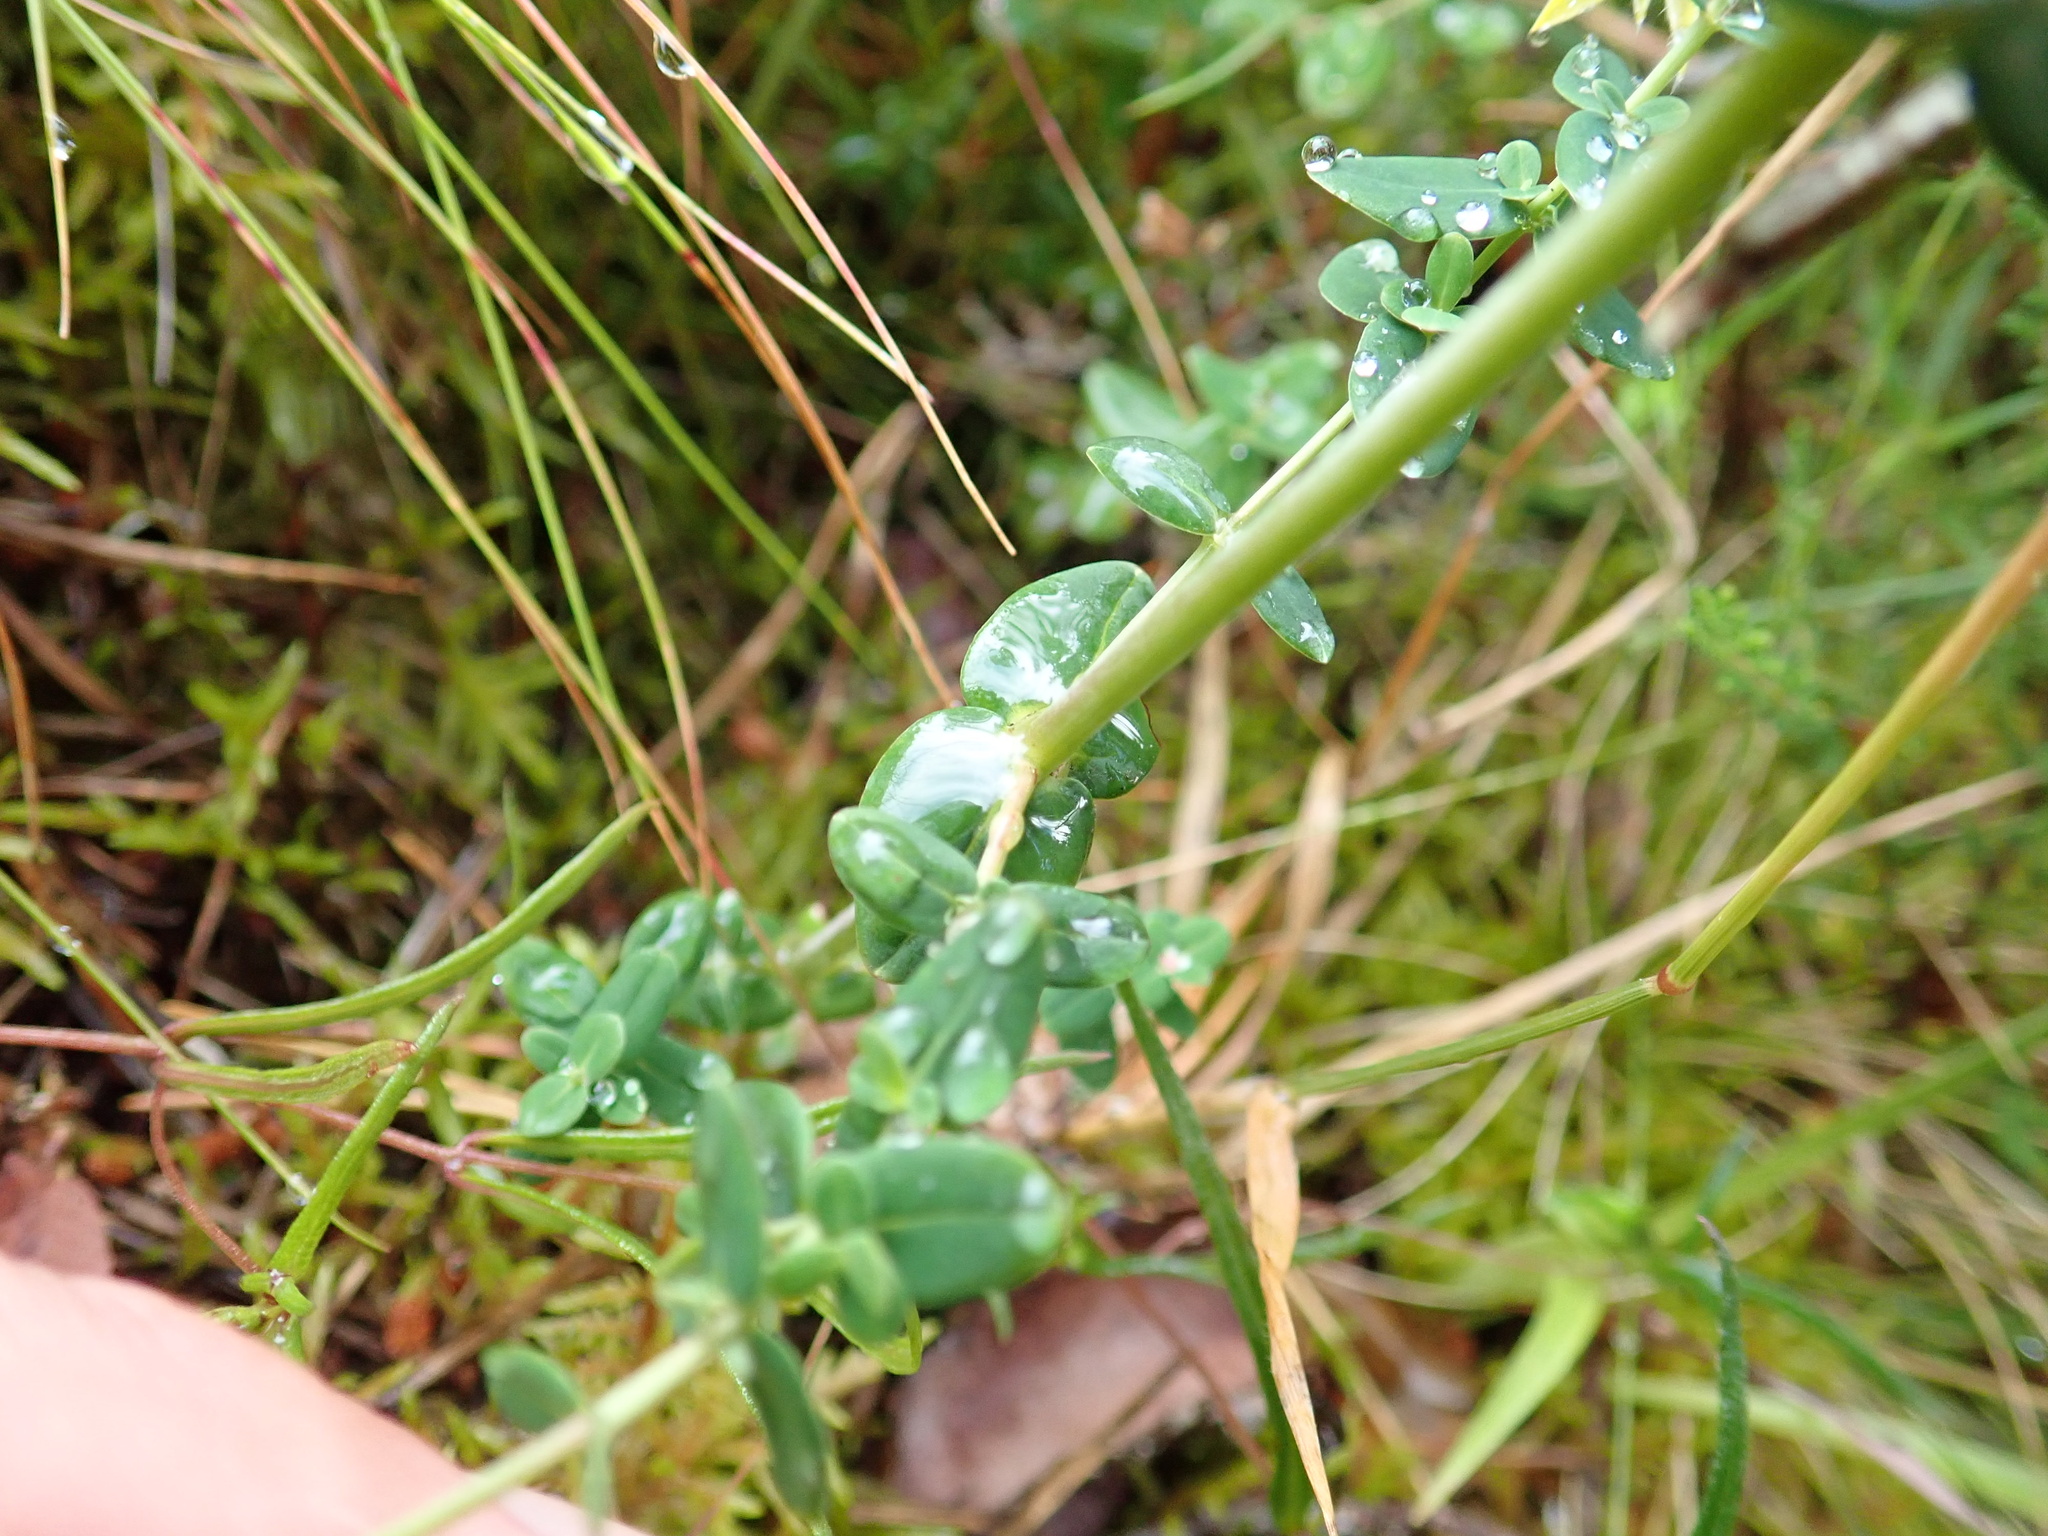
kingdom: Plantae
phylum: Tracheophyta
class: Magnoliopsida
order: Malpighiales
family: Hypericaceae
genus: Hypericum
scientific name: Hypericum pulchrum
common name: Slender st. john's-wort
